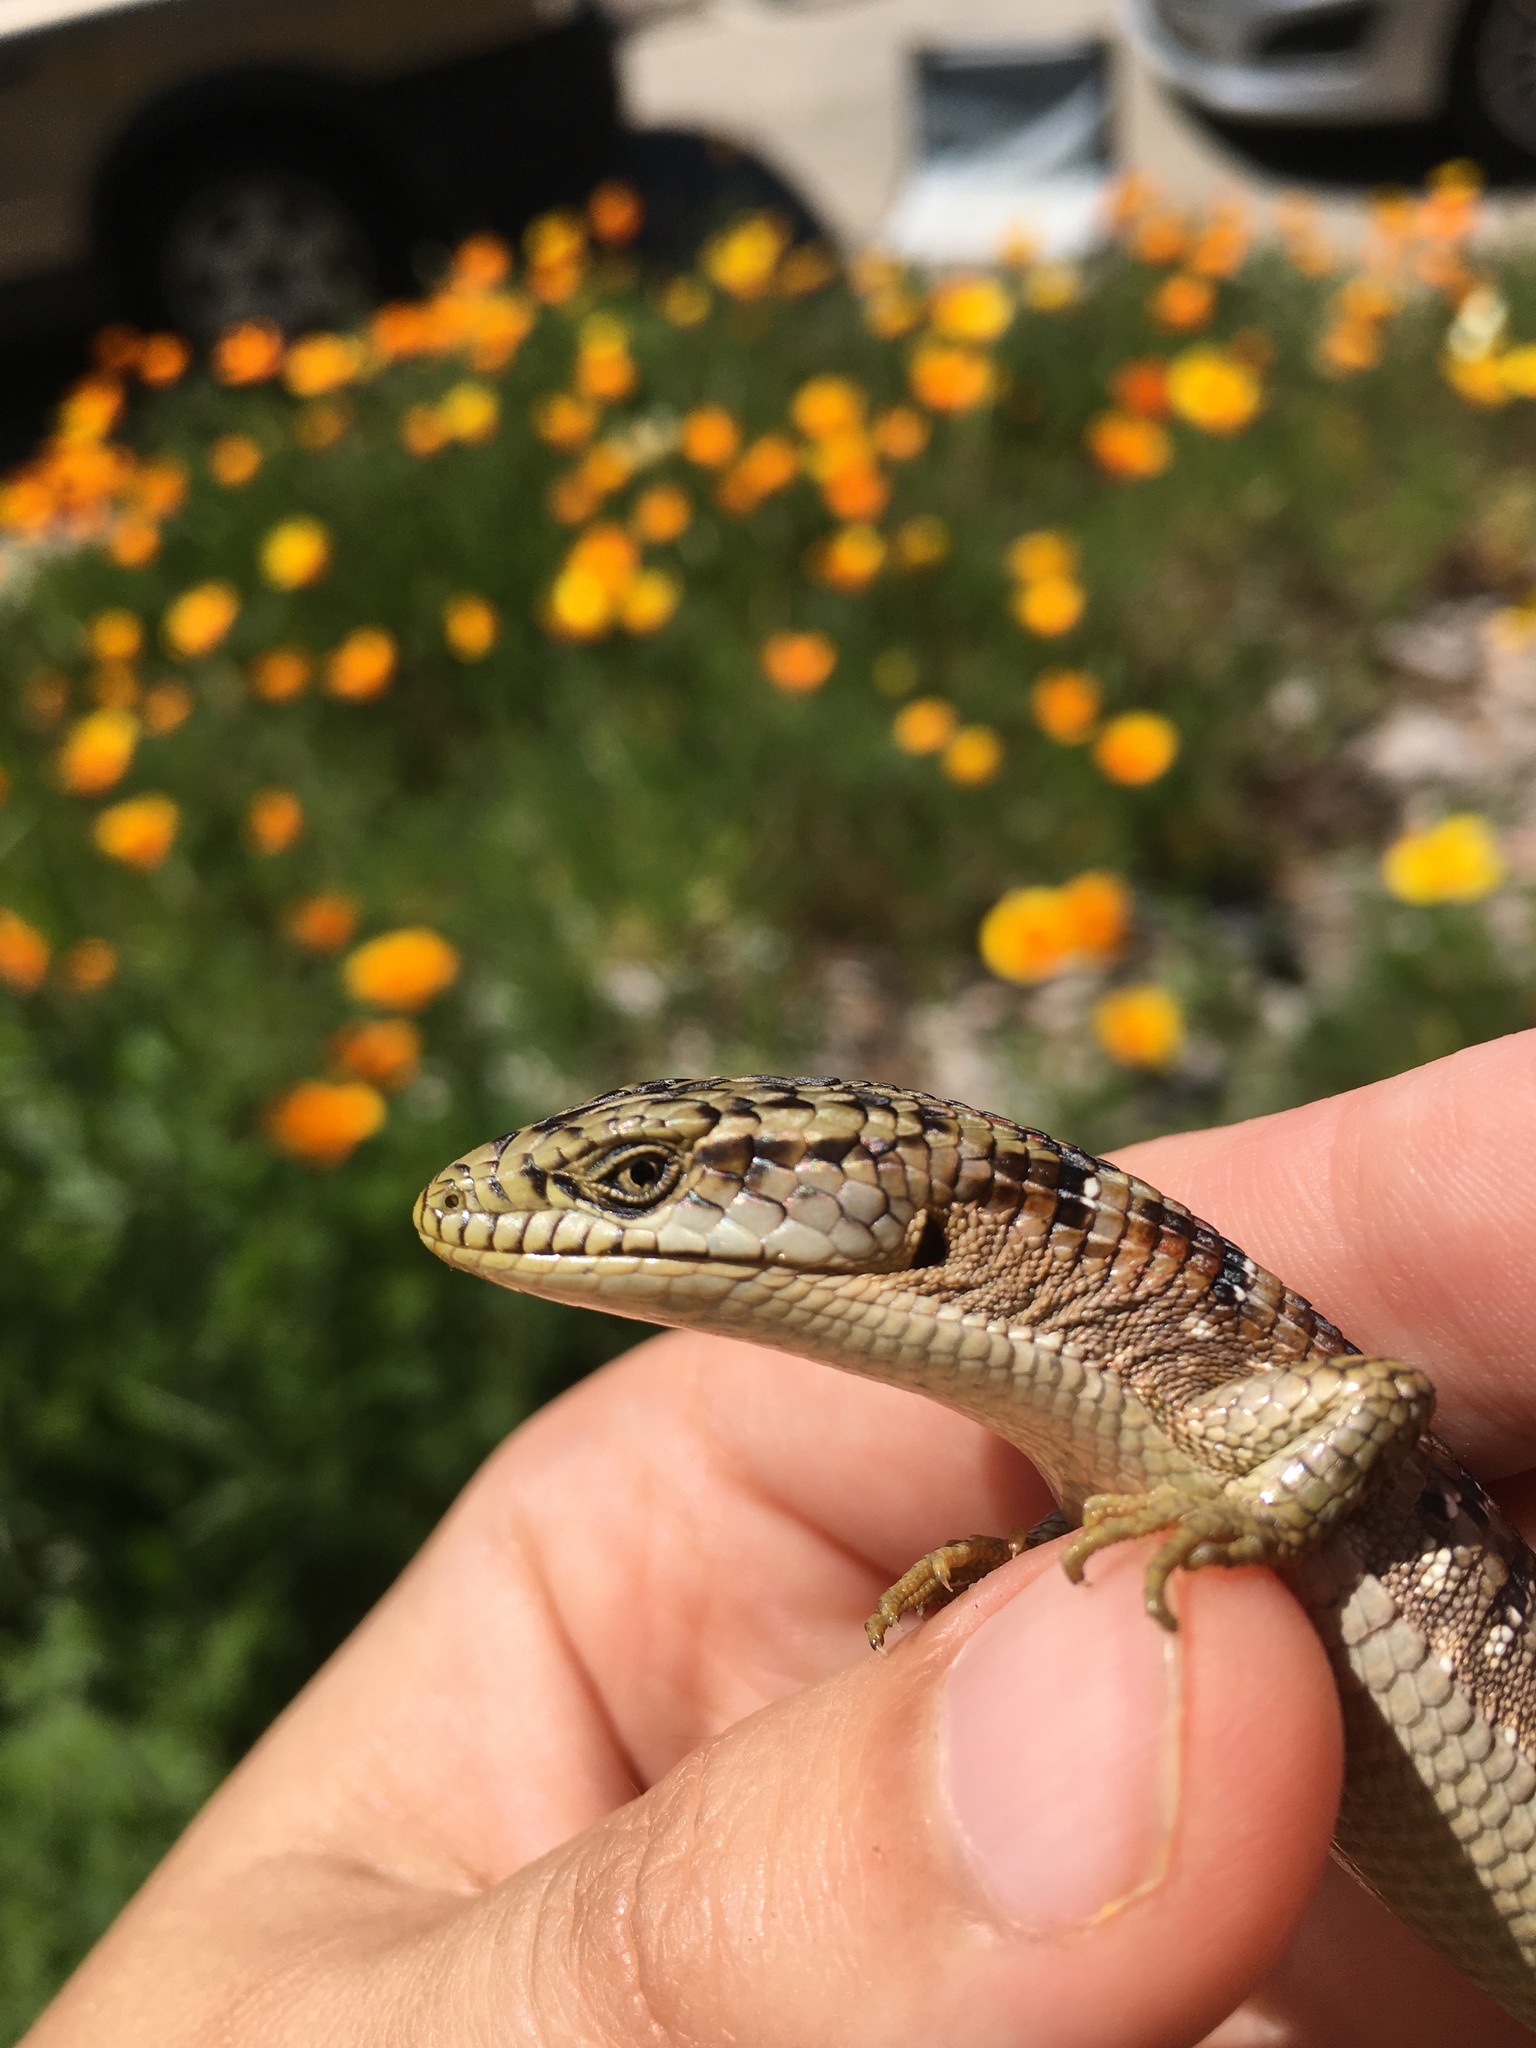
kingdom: Animalia
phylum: Chordata
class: Squamata
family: Anguidae
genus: Elgaria
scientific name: Elgaria multicarinata
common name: Southern alligator lizard
